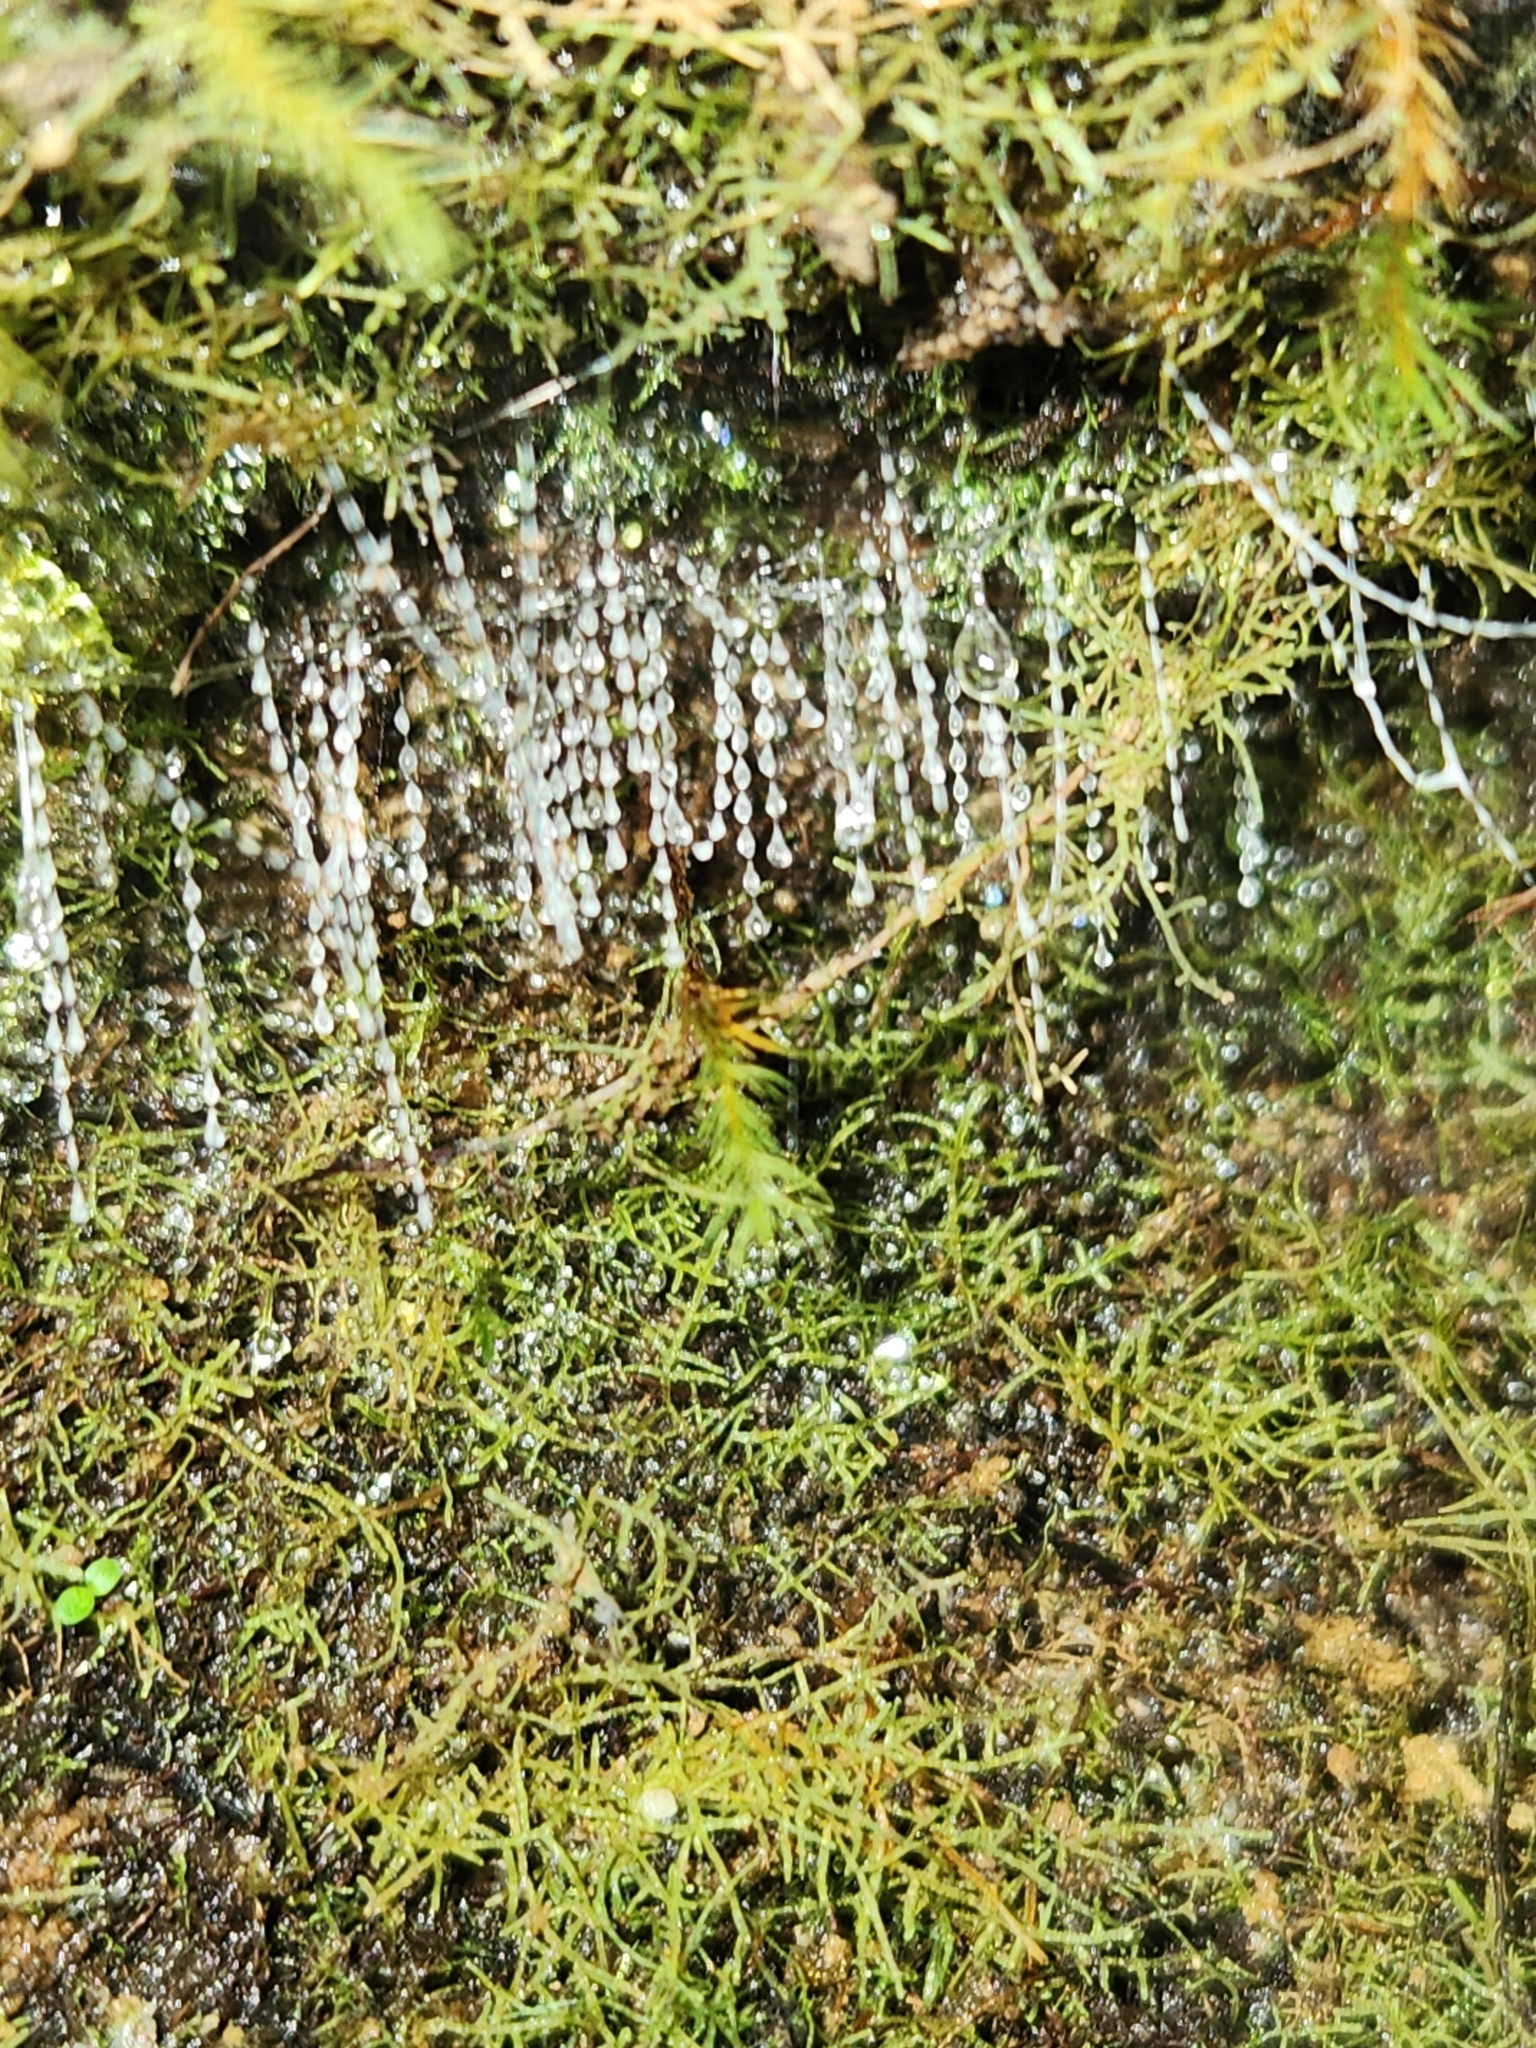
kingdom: Animalia
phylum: Arthropoda
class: Insecta
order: Diptera
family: Keroplatidae
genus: Arachnocampa
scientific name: Arachnocampa luminosa
